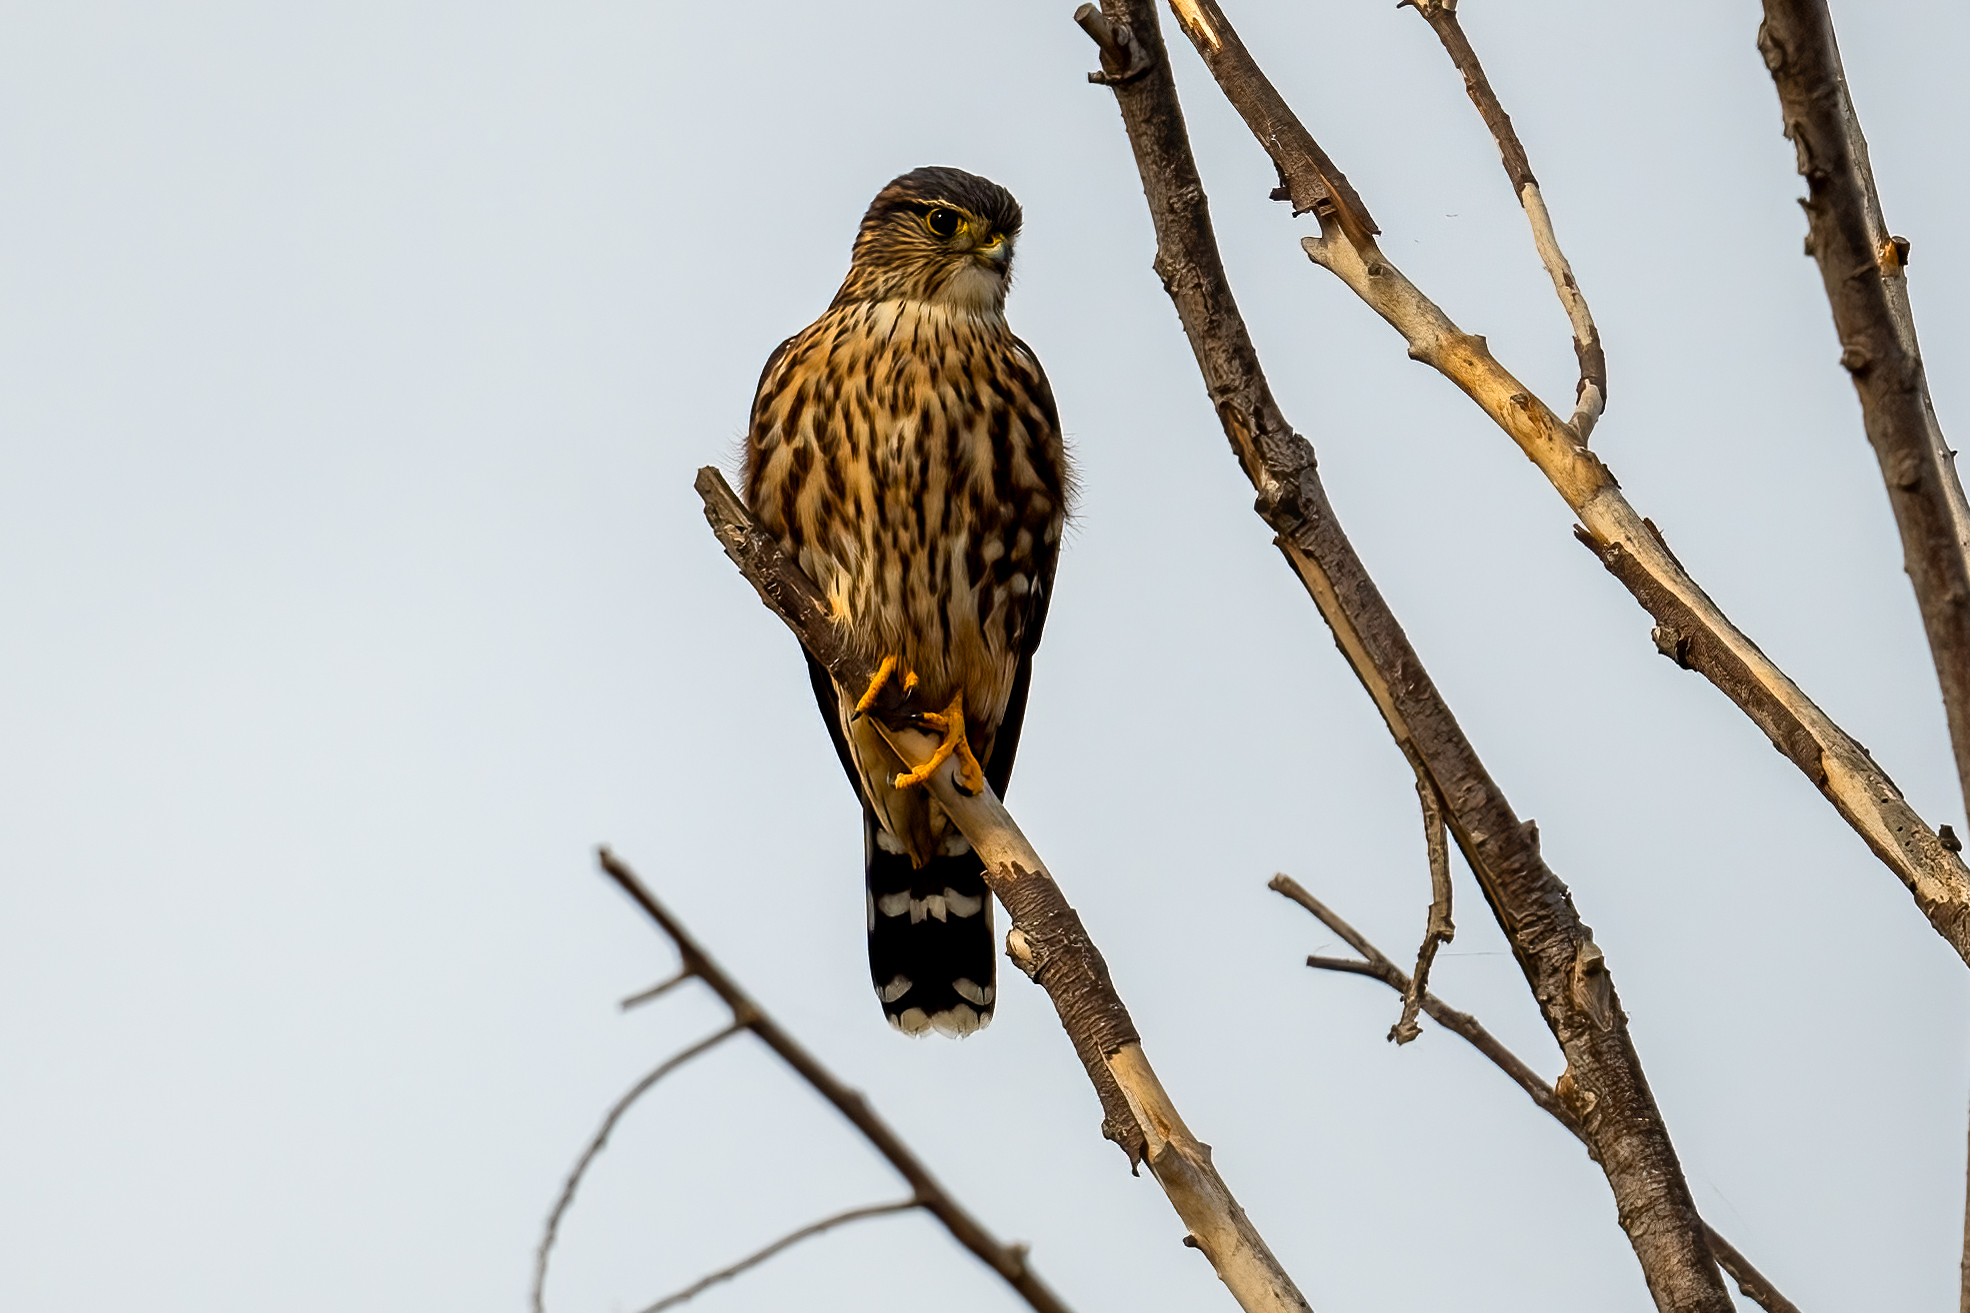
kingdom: Animalia
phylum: Chordata
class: Aves
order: Falconiformes
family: Falconidae
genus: Falco
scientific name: Falco columbarius
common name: Merlin
